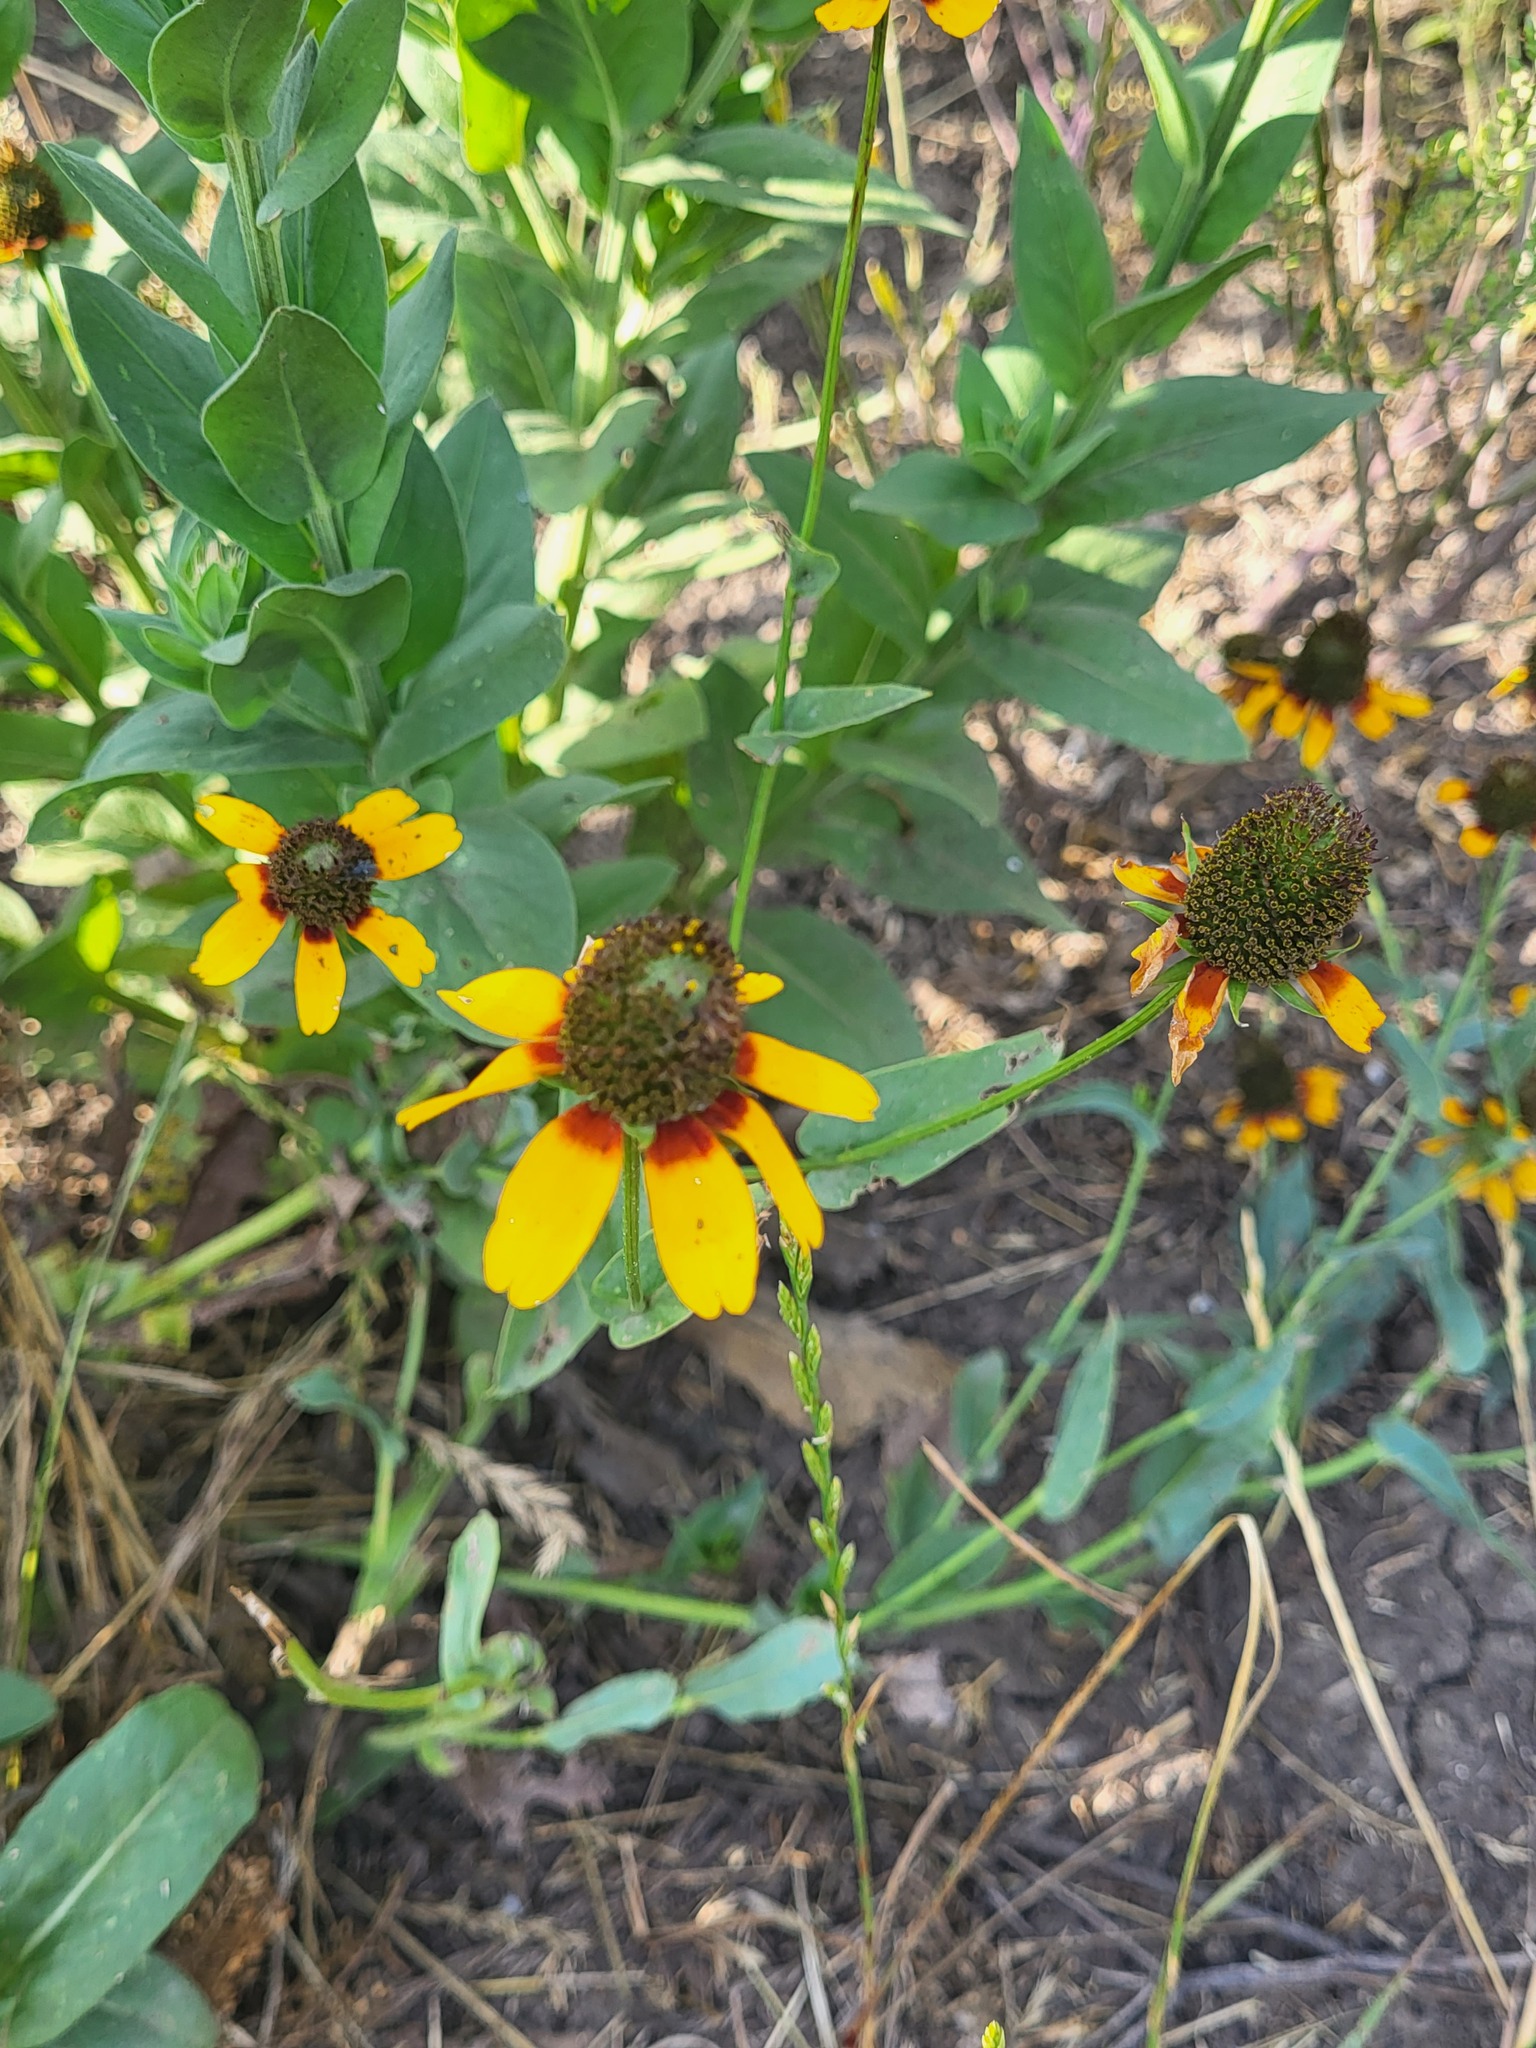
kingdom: Plantae
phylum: Tracheophyta
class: Magnoliopsida
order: Asterales
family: Asteraceae
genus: Rudbeckia
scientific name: Rudbeckia amplexicaulis
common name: Clasping-leaf coneflower
